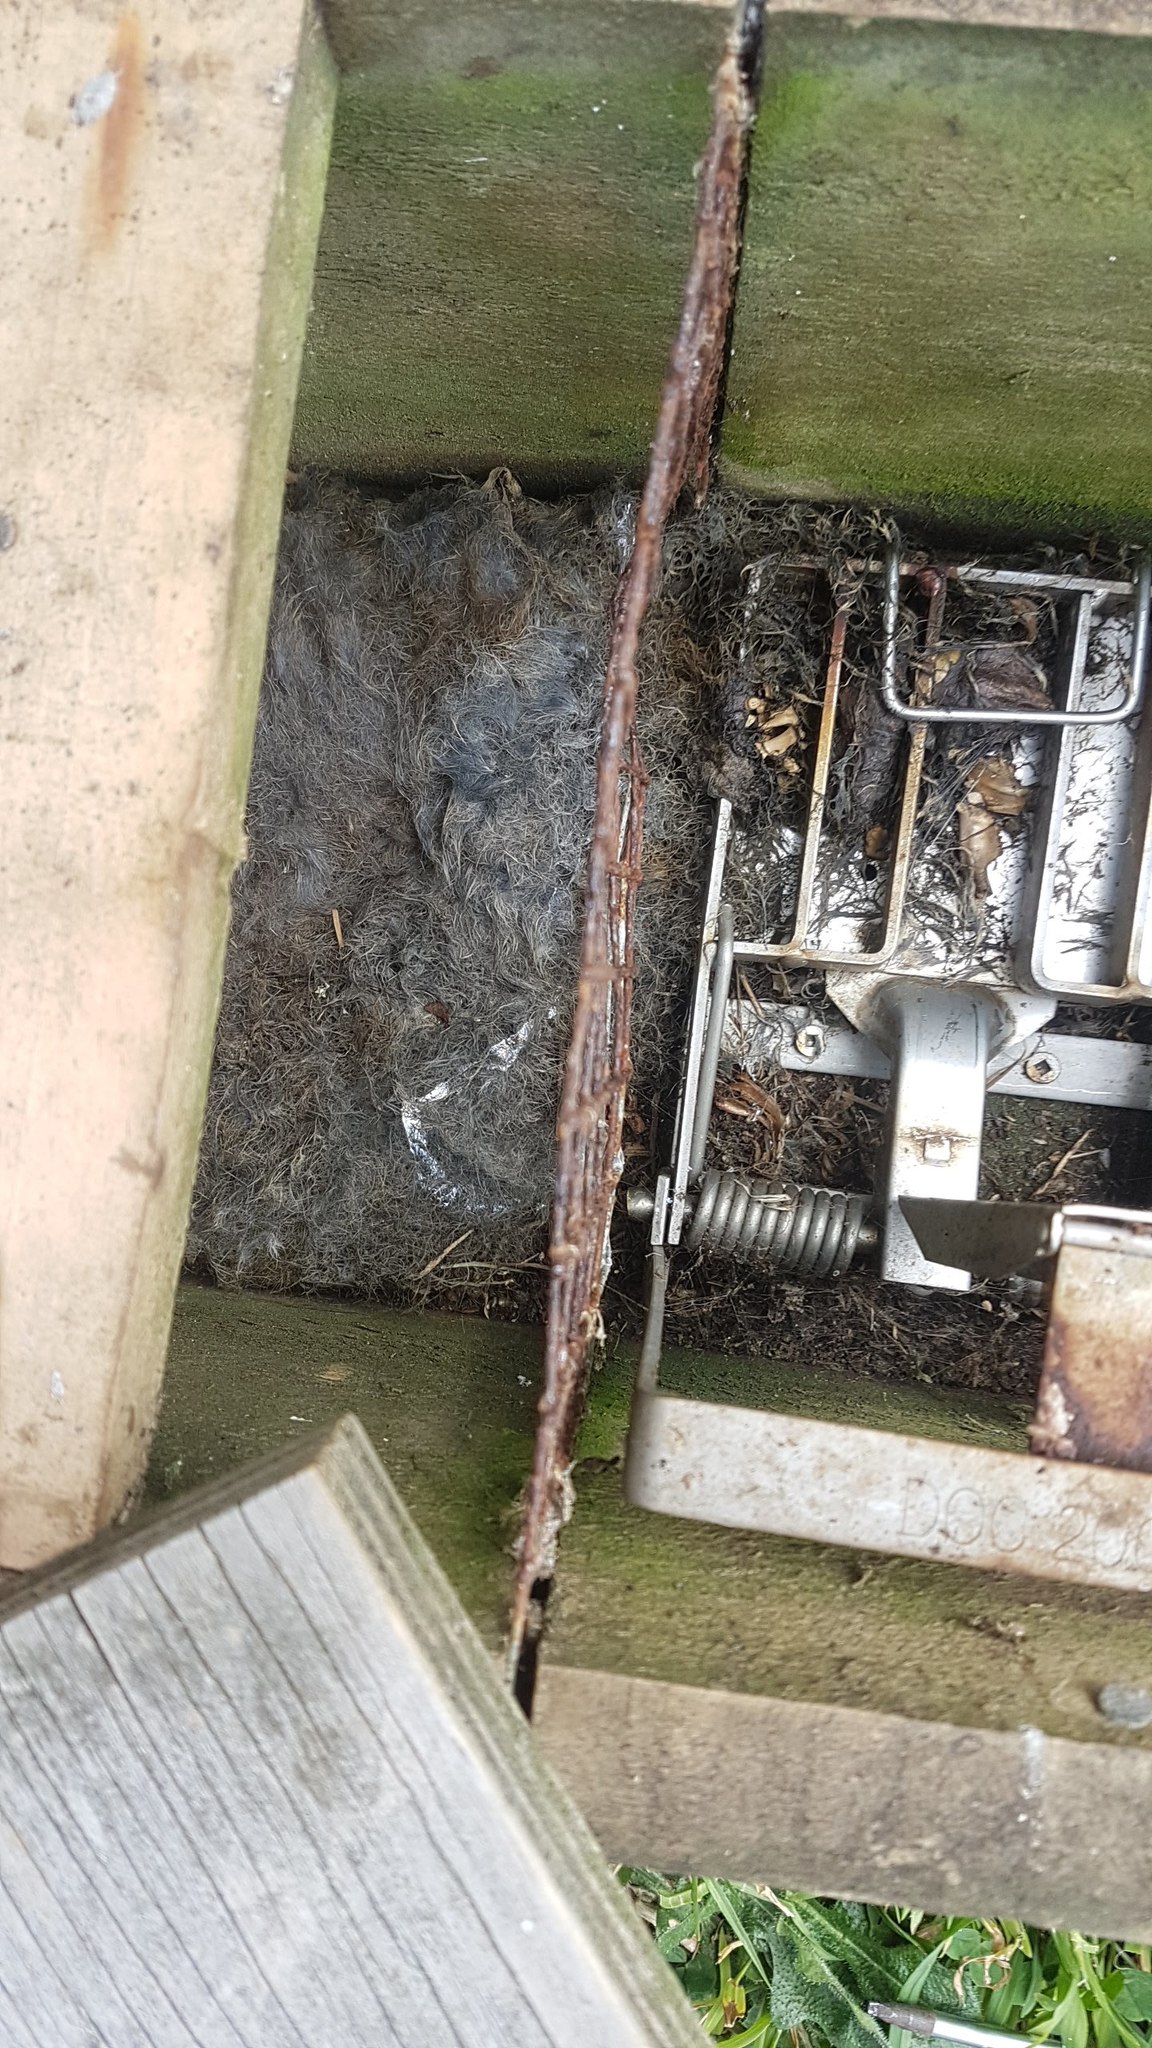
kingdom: Animalia
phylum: Chordata
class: Mammalia
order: Lagomorpha
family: Leporidae
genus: Oryctolagus
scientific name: Oryctolagus cuniculus
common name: European rabbit
